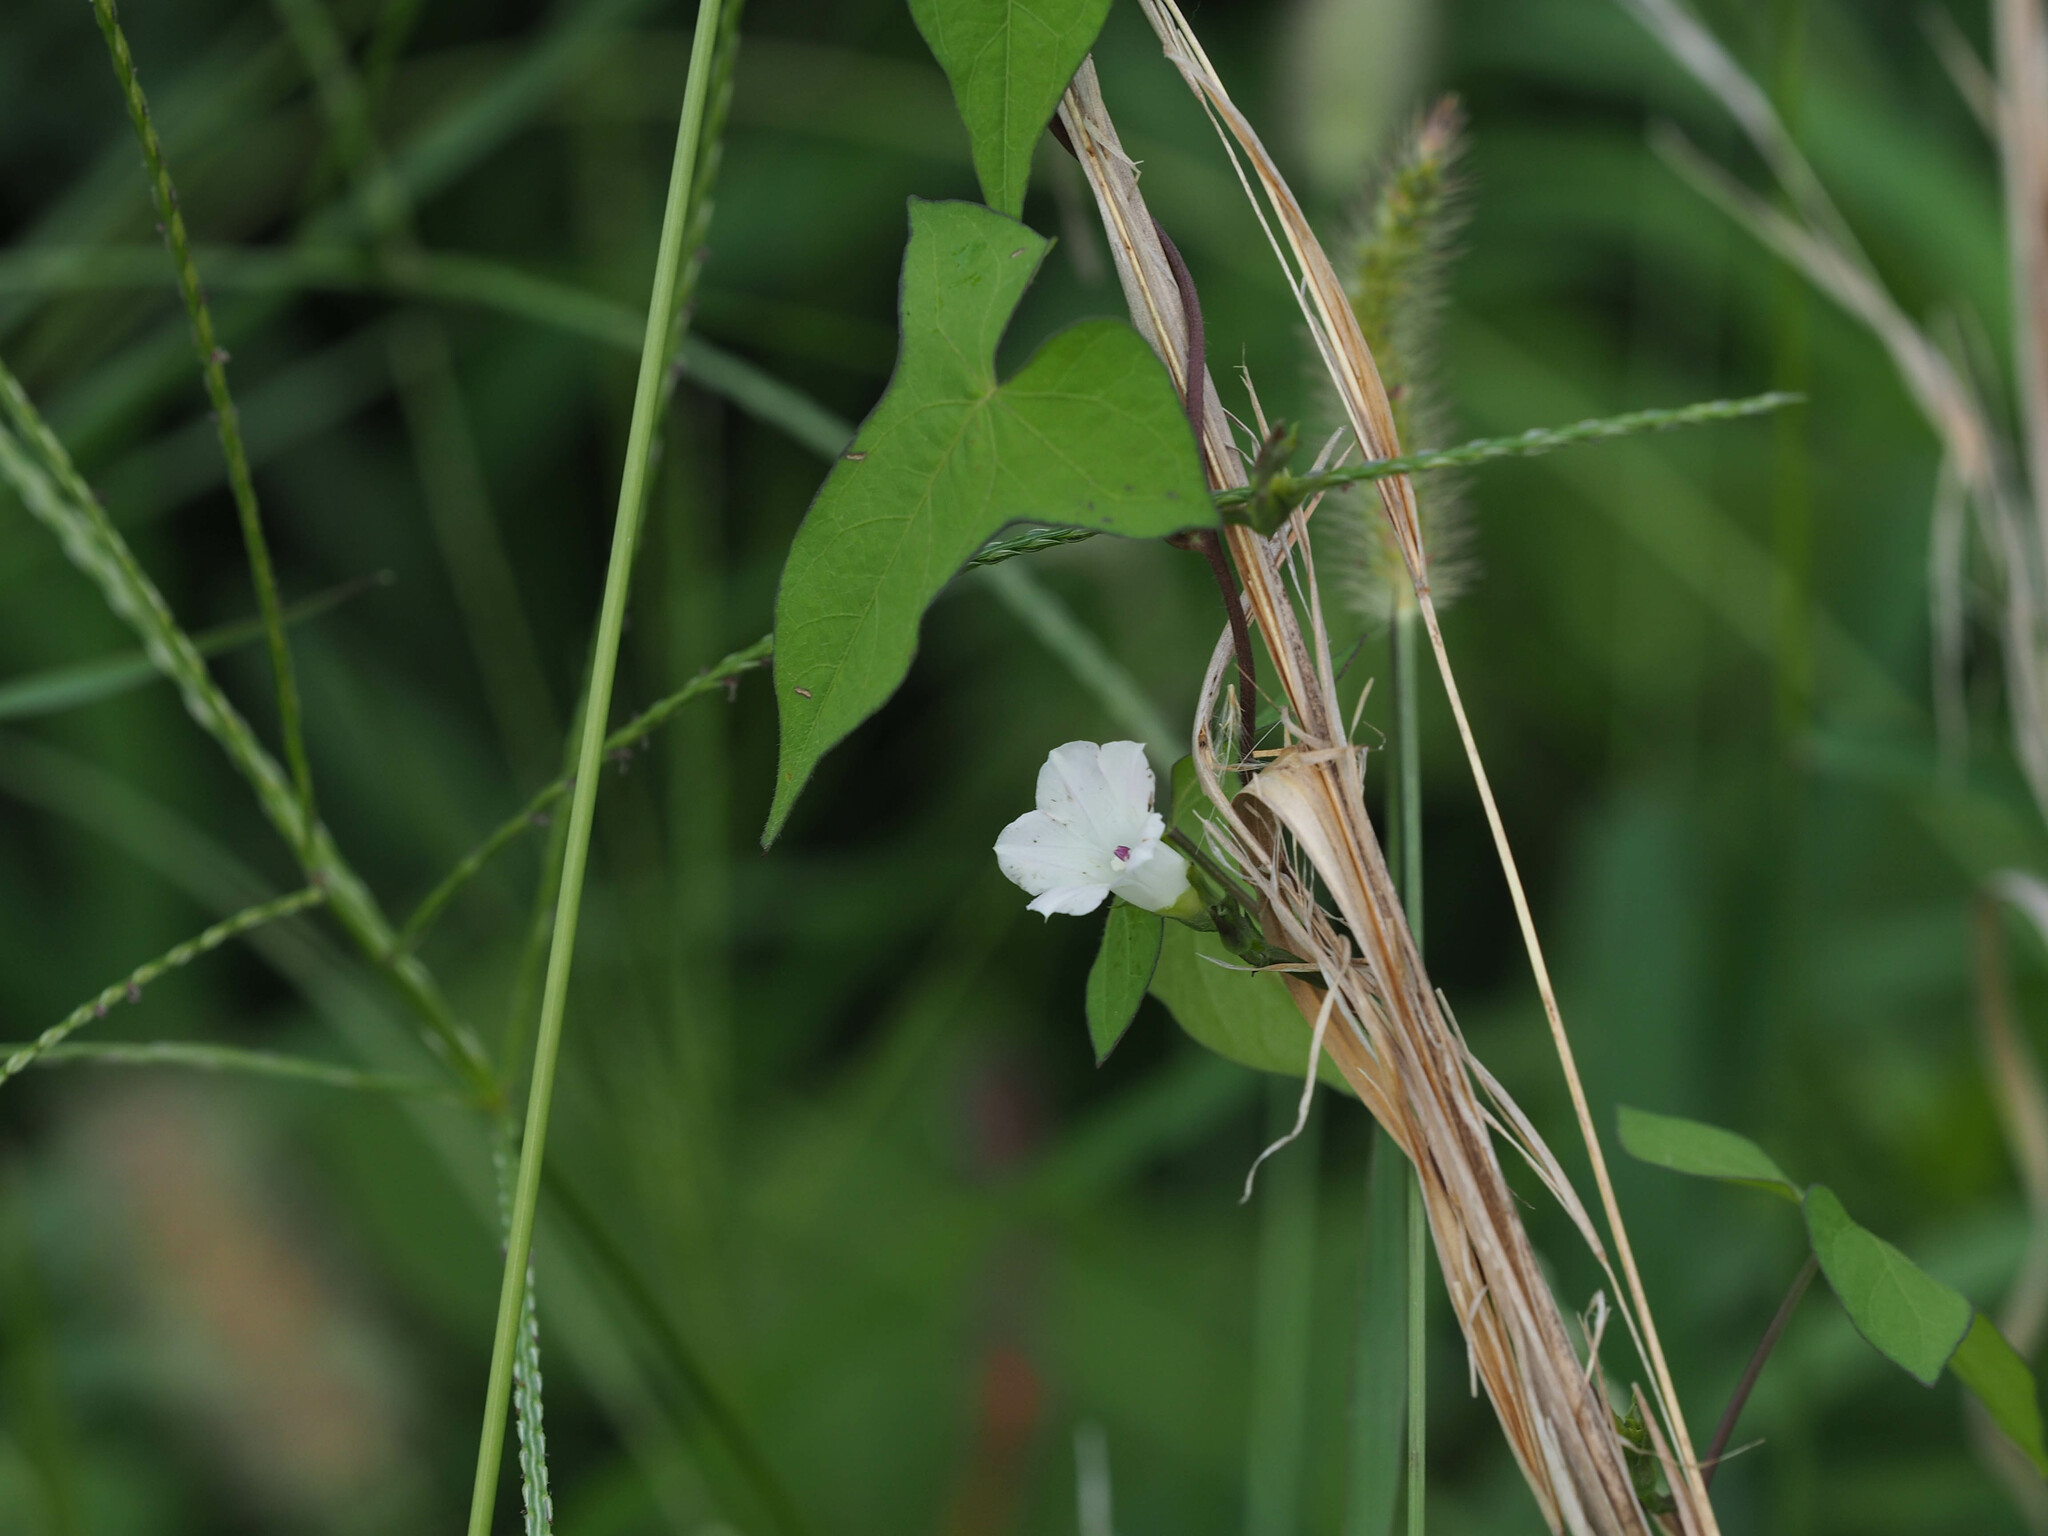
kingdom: Plantae
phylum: Tracheophyta
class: Magnoliopsida
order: Solanales
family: Convolvulaceae
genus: Ipomoea
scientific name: Ipomoea lacunosa
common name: White morning-glory
